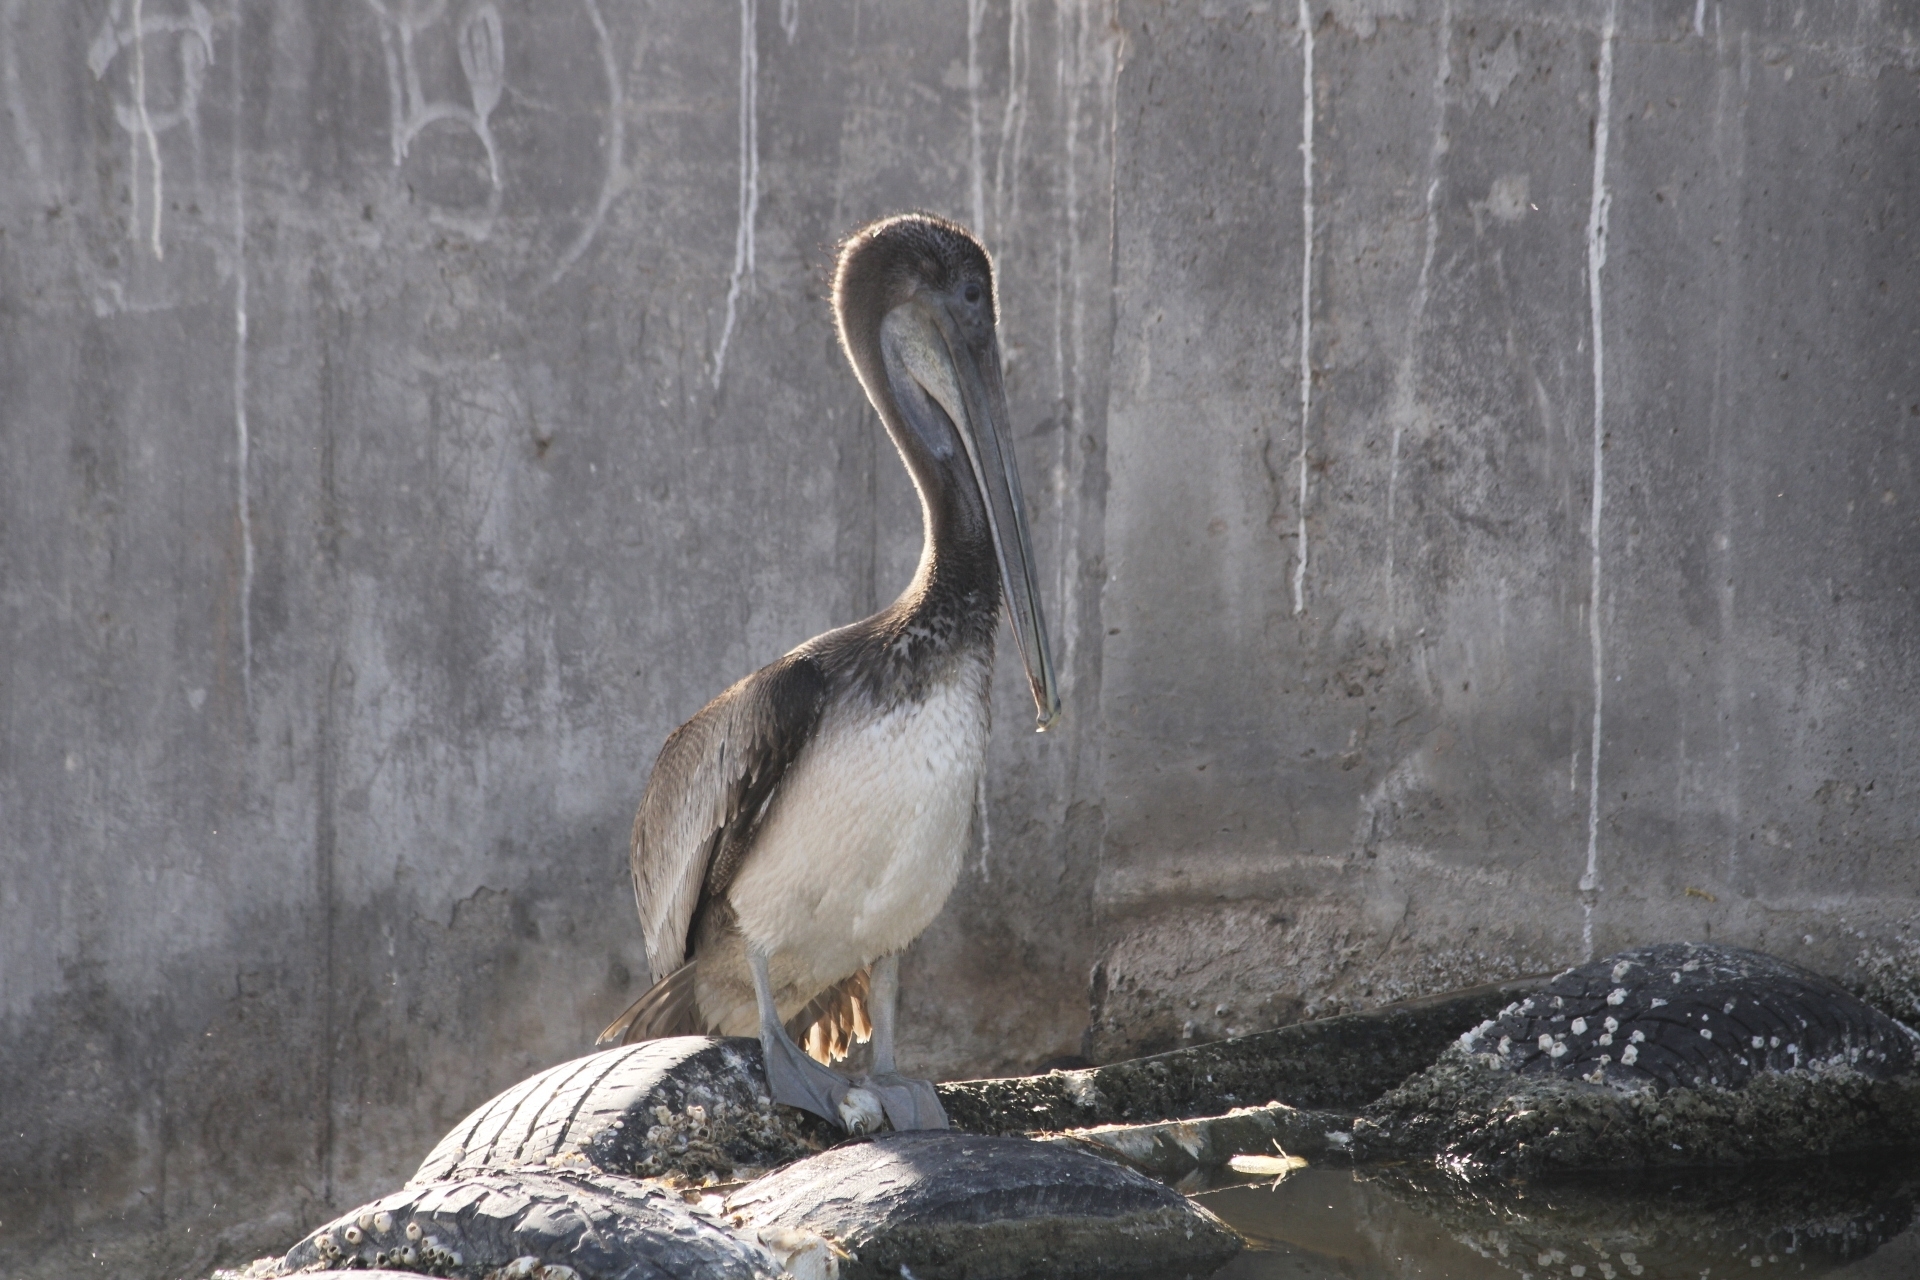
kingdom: Animalia
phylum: Chordata
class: Aves
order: Pelecaniformes
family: Pelecanidae
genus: Pelecanus
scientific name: Pelecanus occidentalis
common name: Brown pelican
